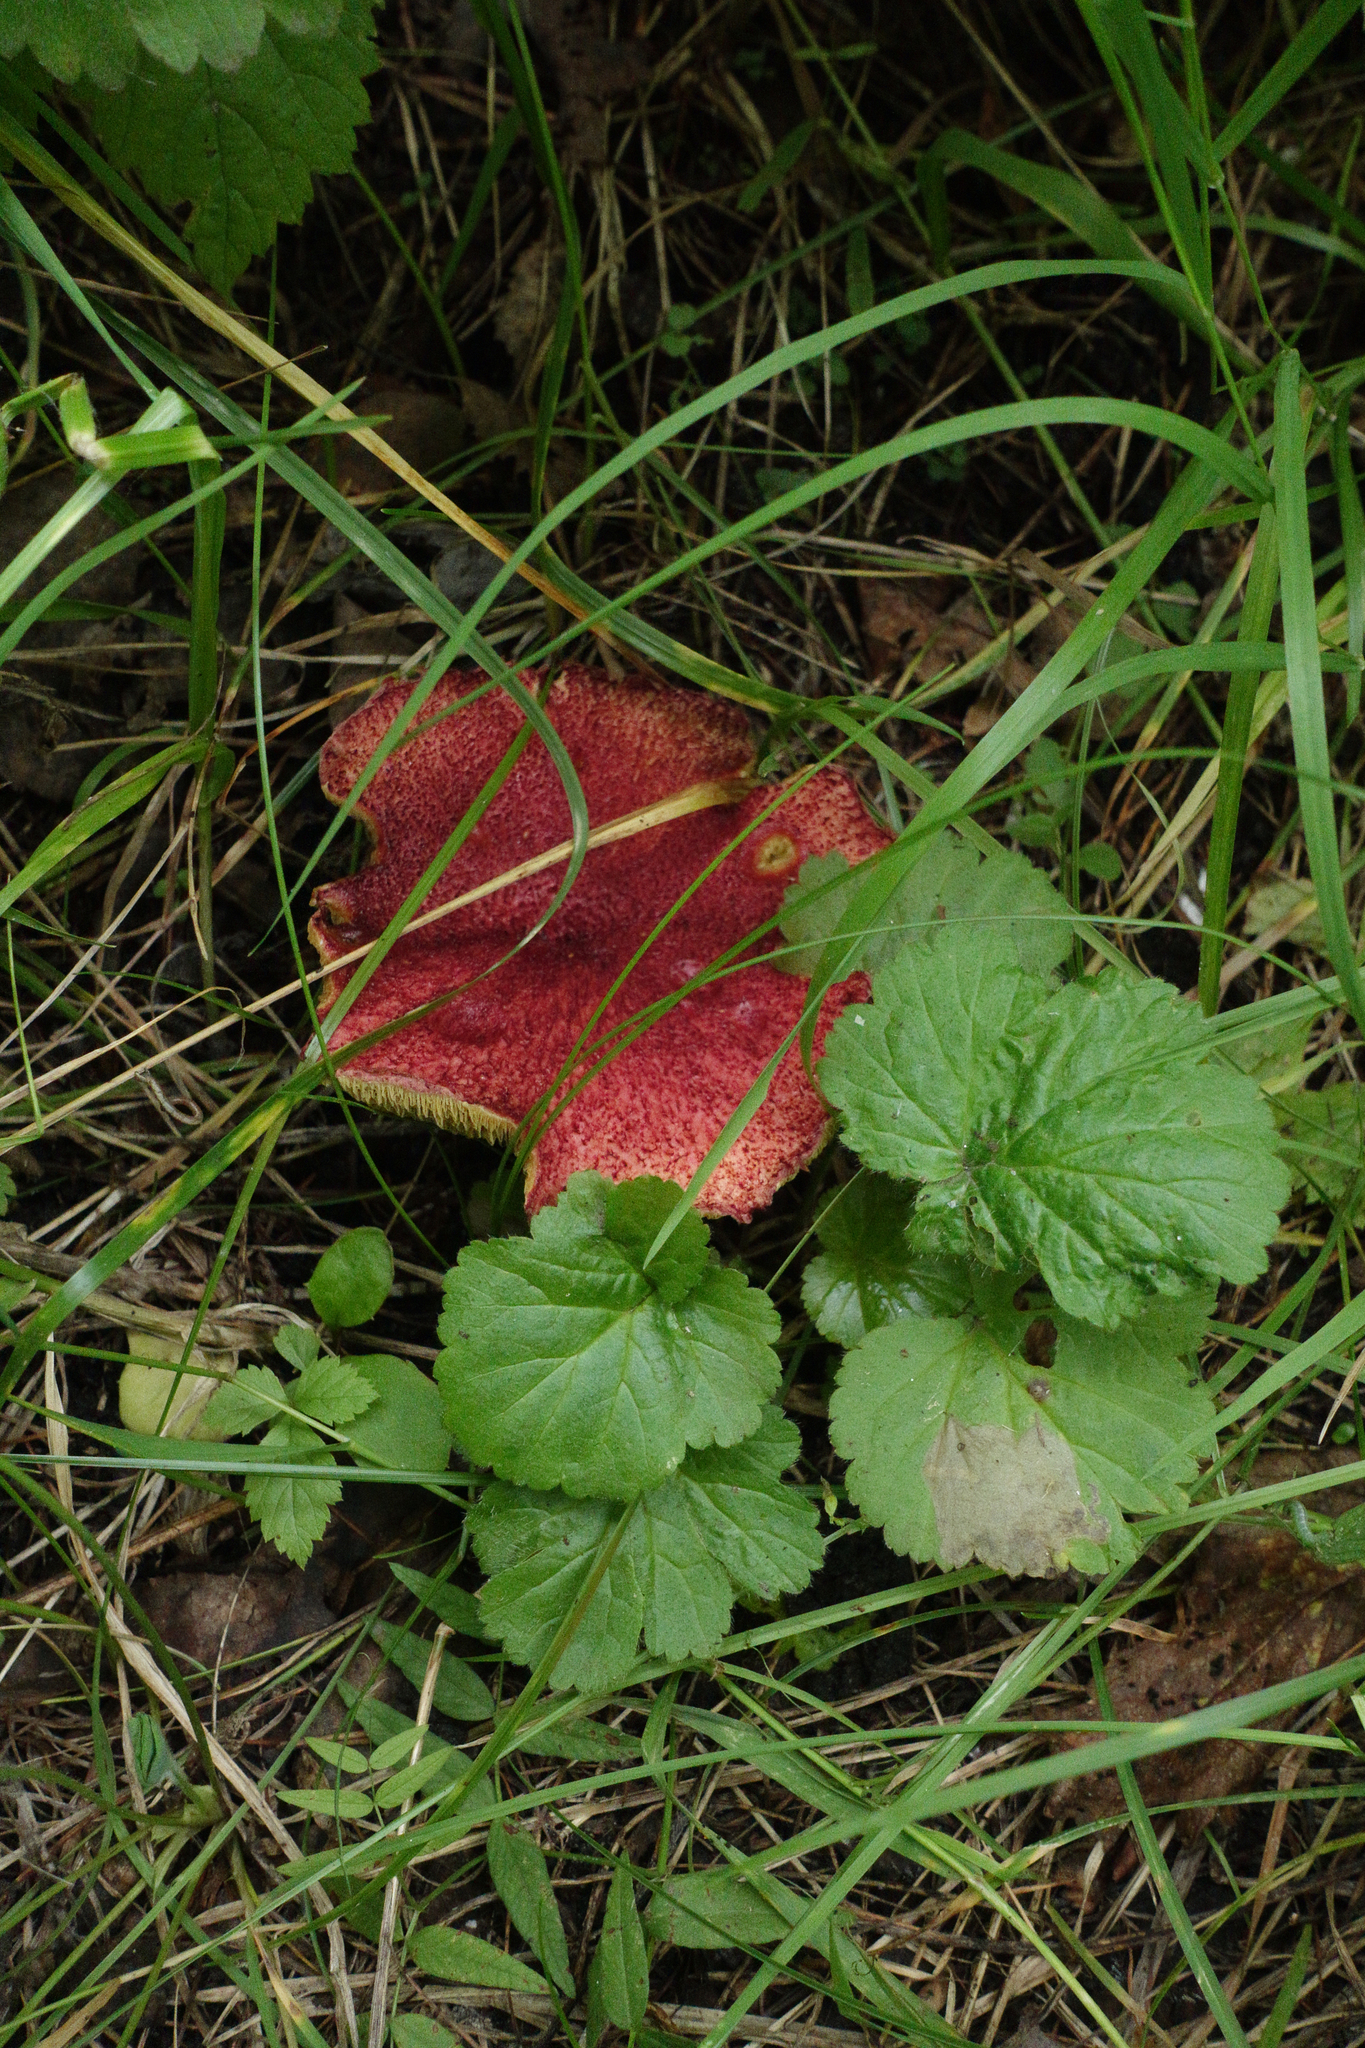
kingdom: Fungi
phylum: Basidiomycota
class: Agaricomycetes
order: Boletales
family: Suillaceae
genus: Boletinus
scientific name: Boletinus asiaticus
